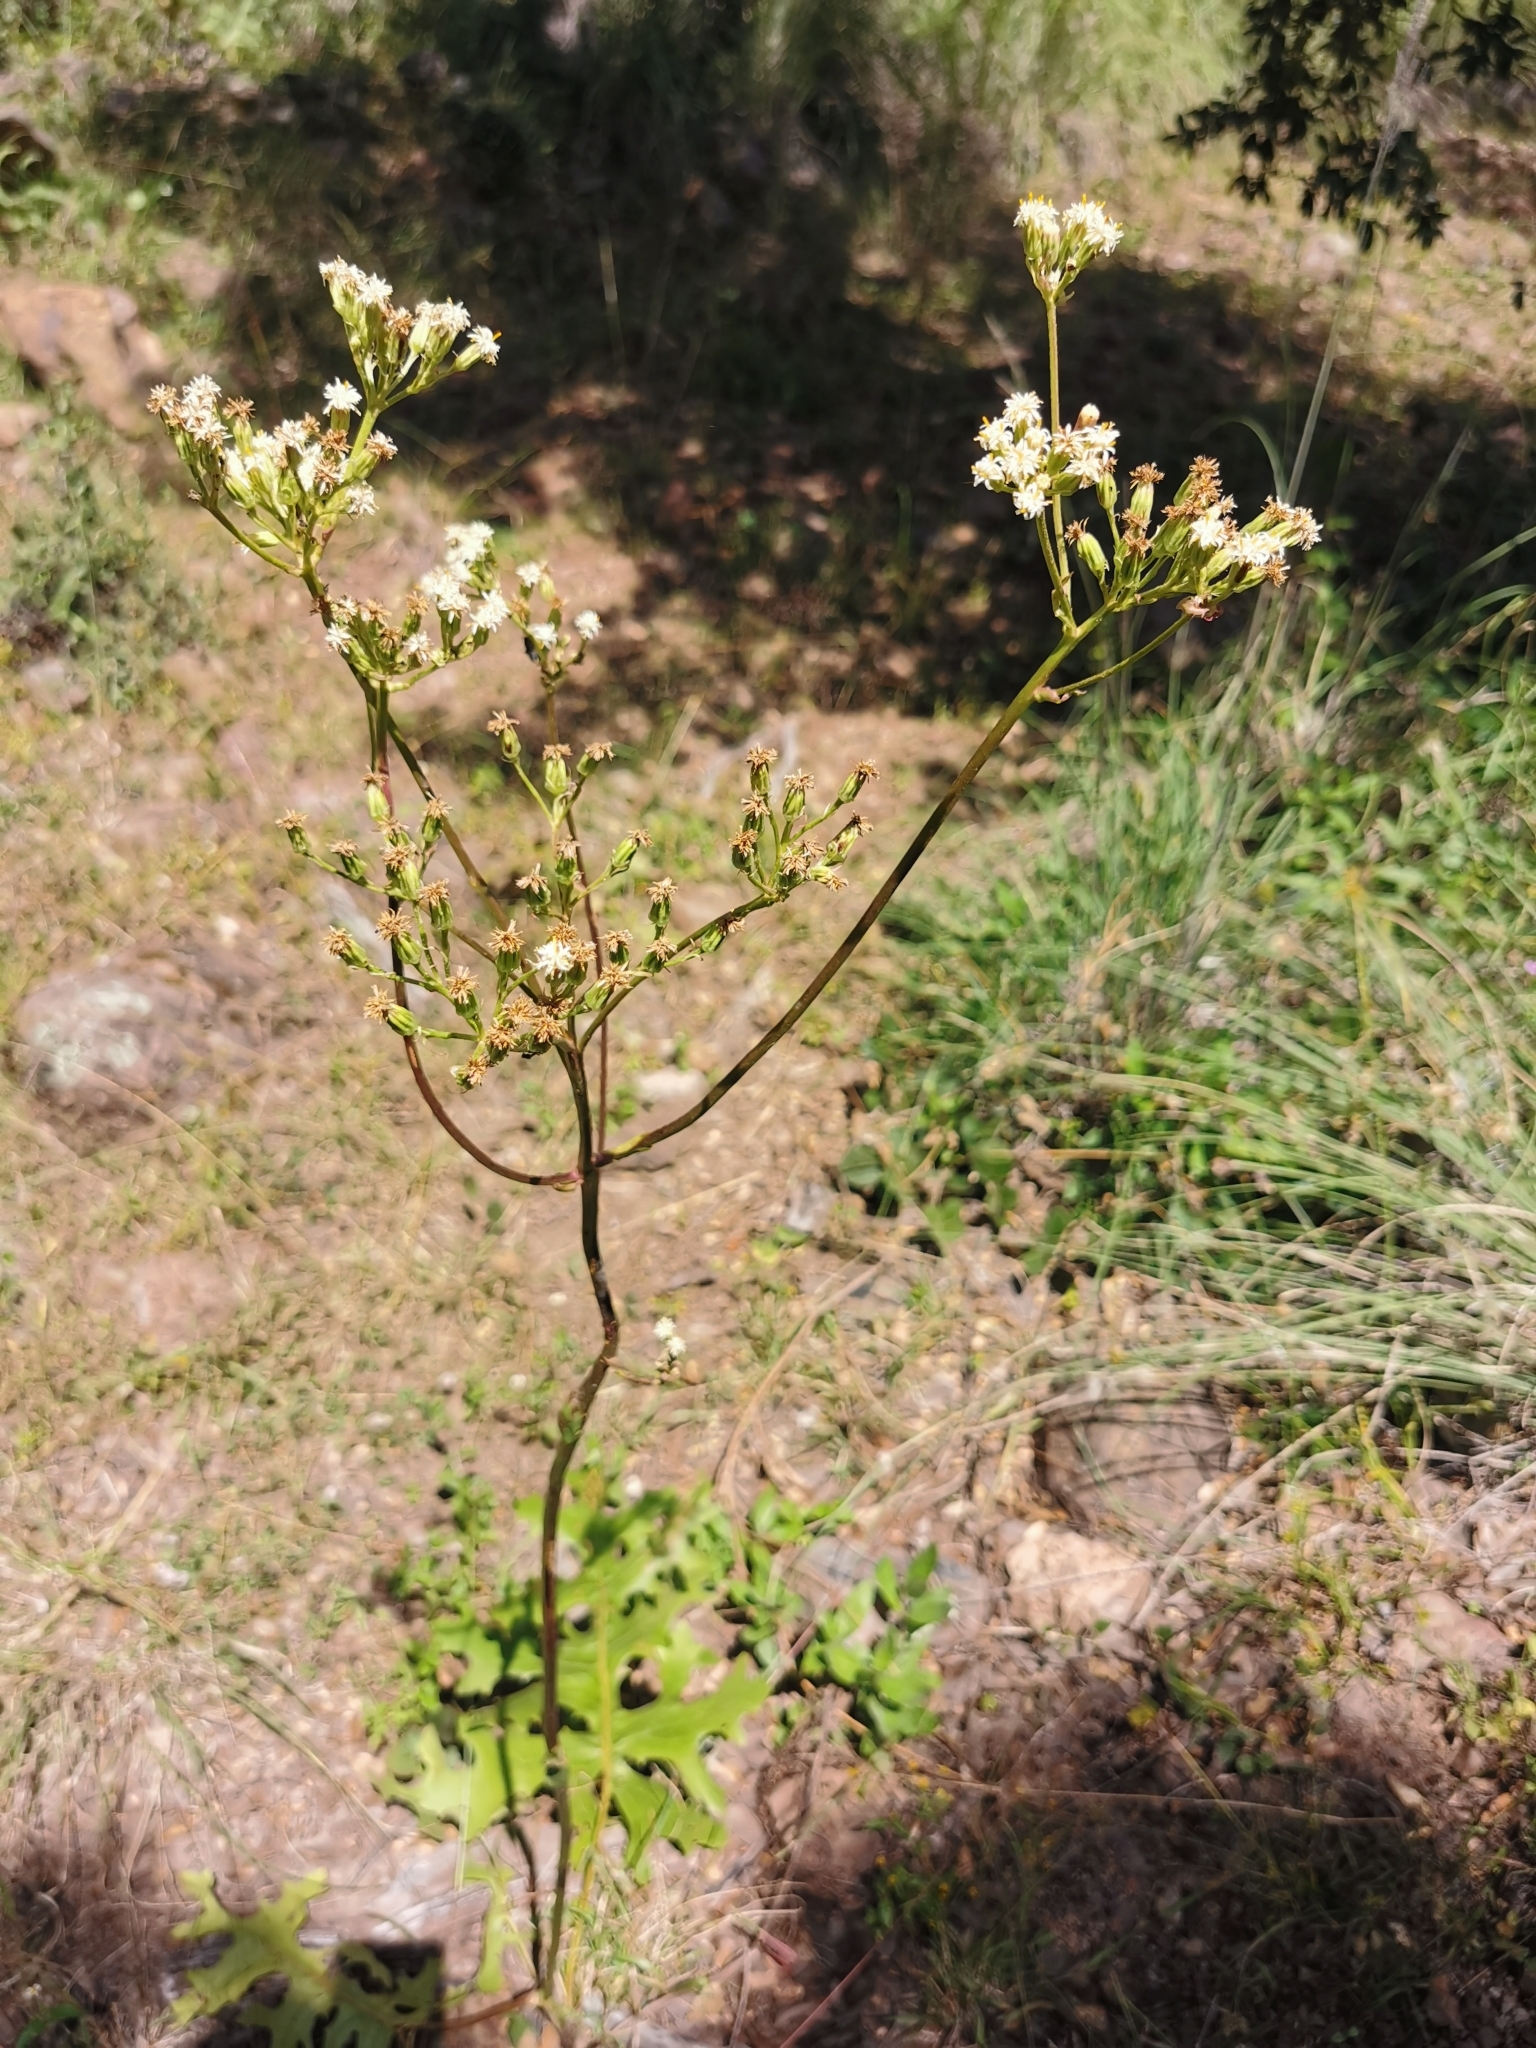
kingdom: Plantae
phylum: Tracheophyta
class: Magnoliopsida
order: Asterales
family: Asteraceae
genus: Psacalium
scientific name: Psacalium sinuatum
